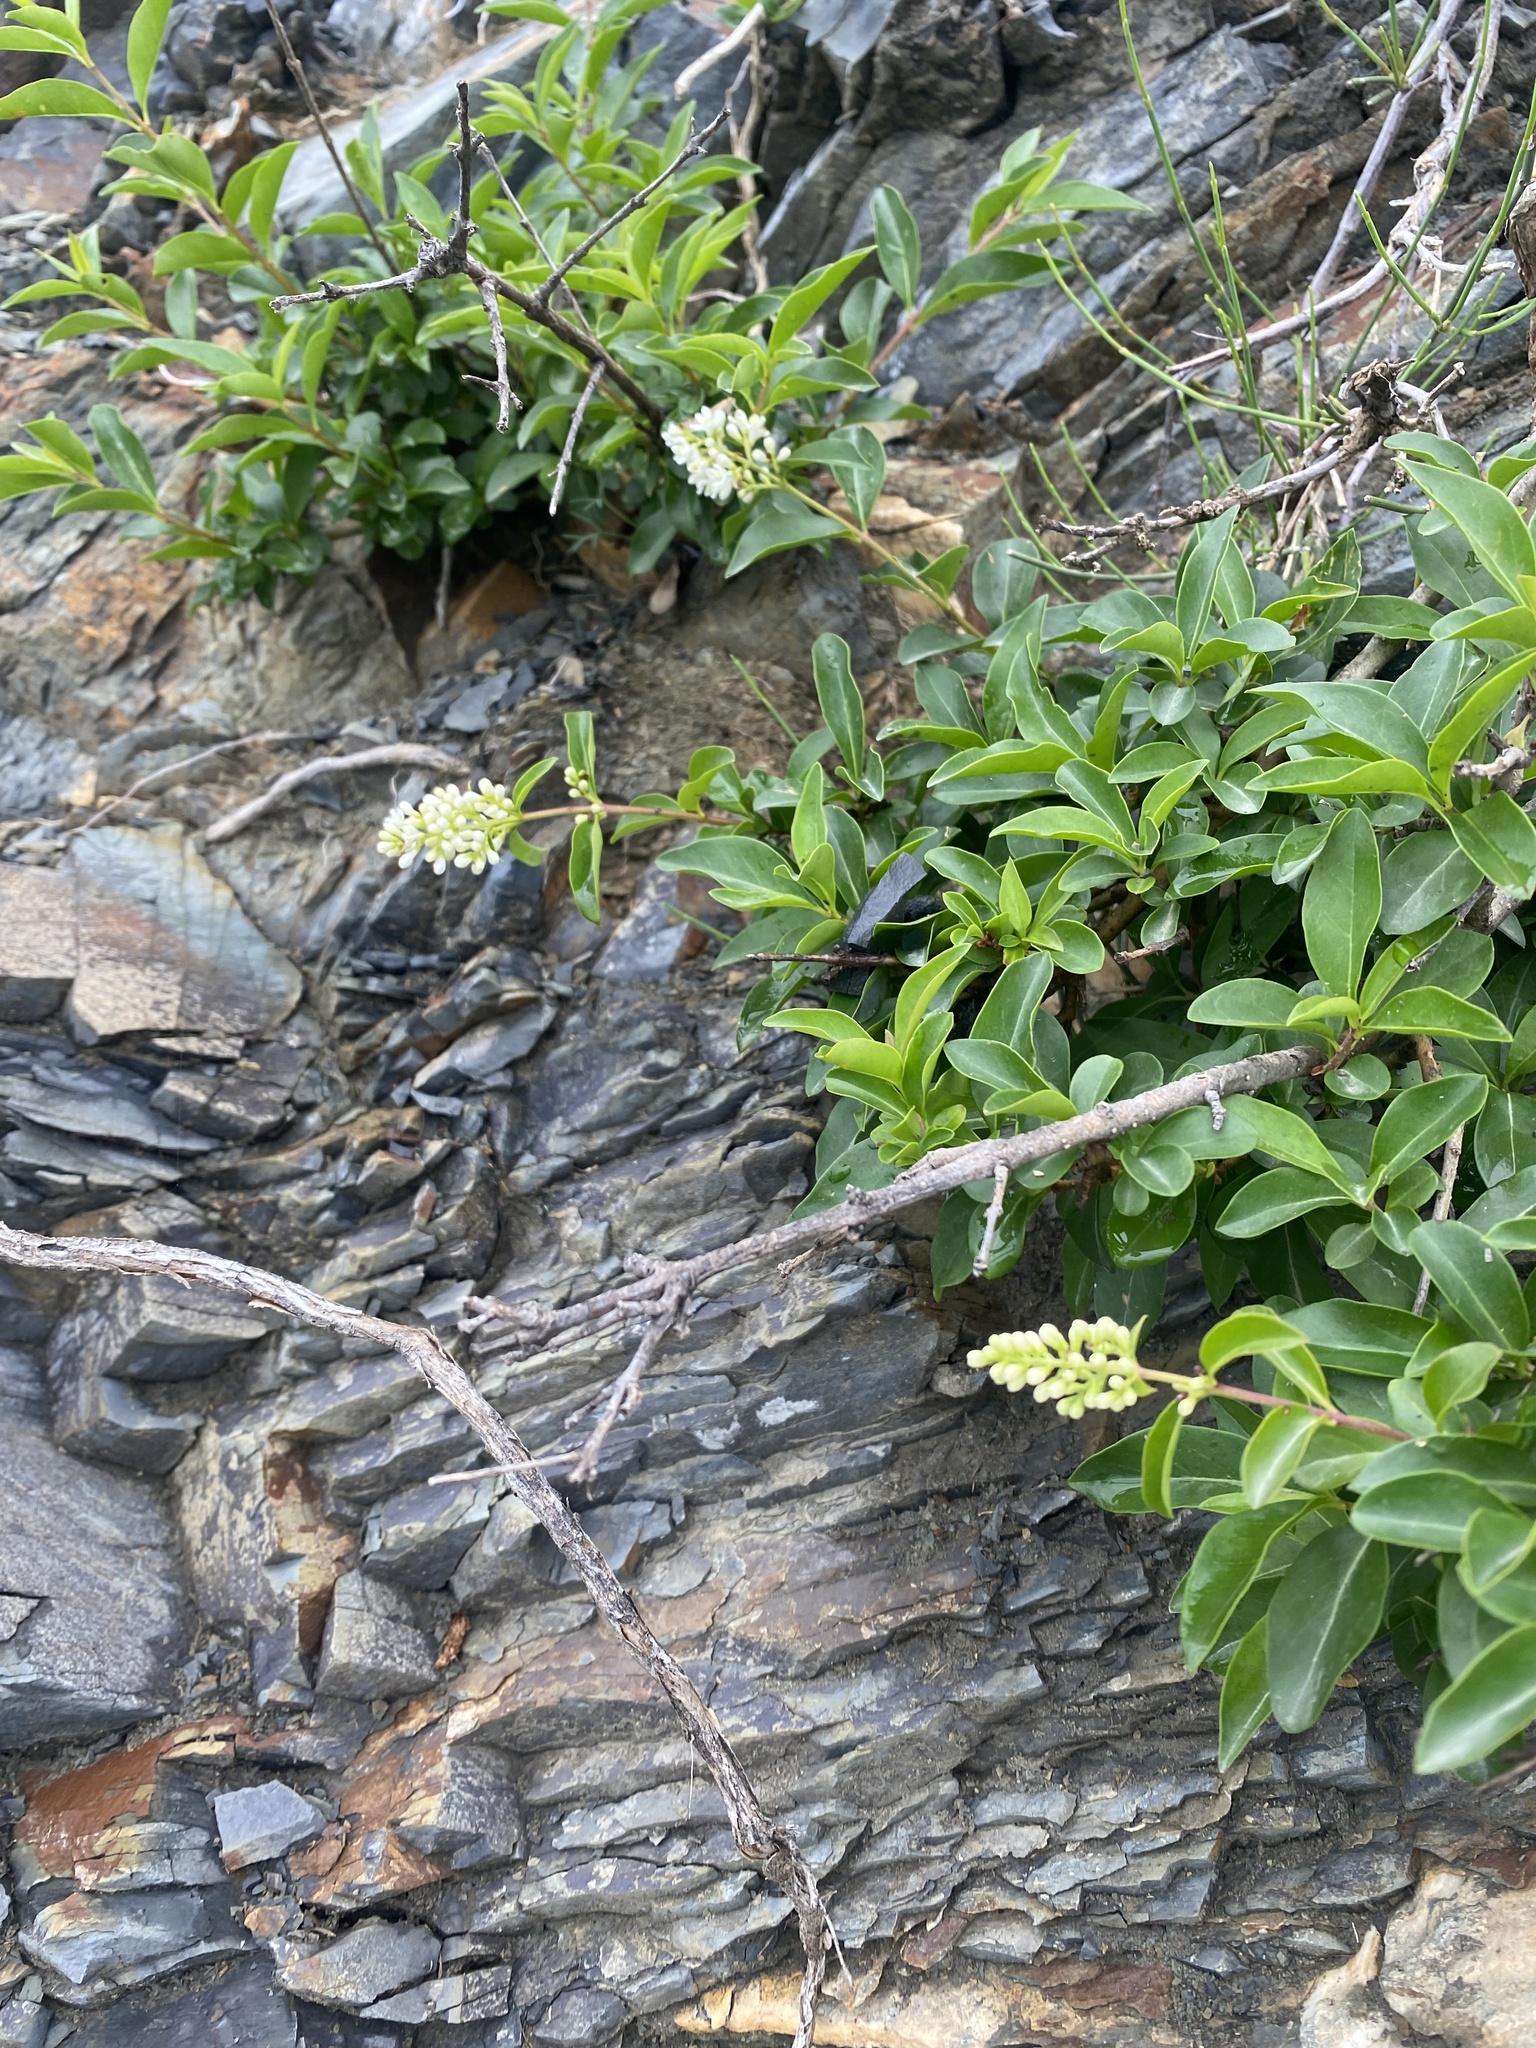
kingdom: Plantae
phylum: Tracheophyta
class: Magnoliopsida
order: Lamiales
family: Oleaceae
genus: Ligustrum
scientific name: Ligustrum vulgare
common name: Wild privet
